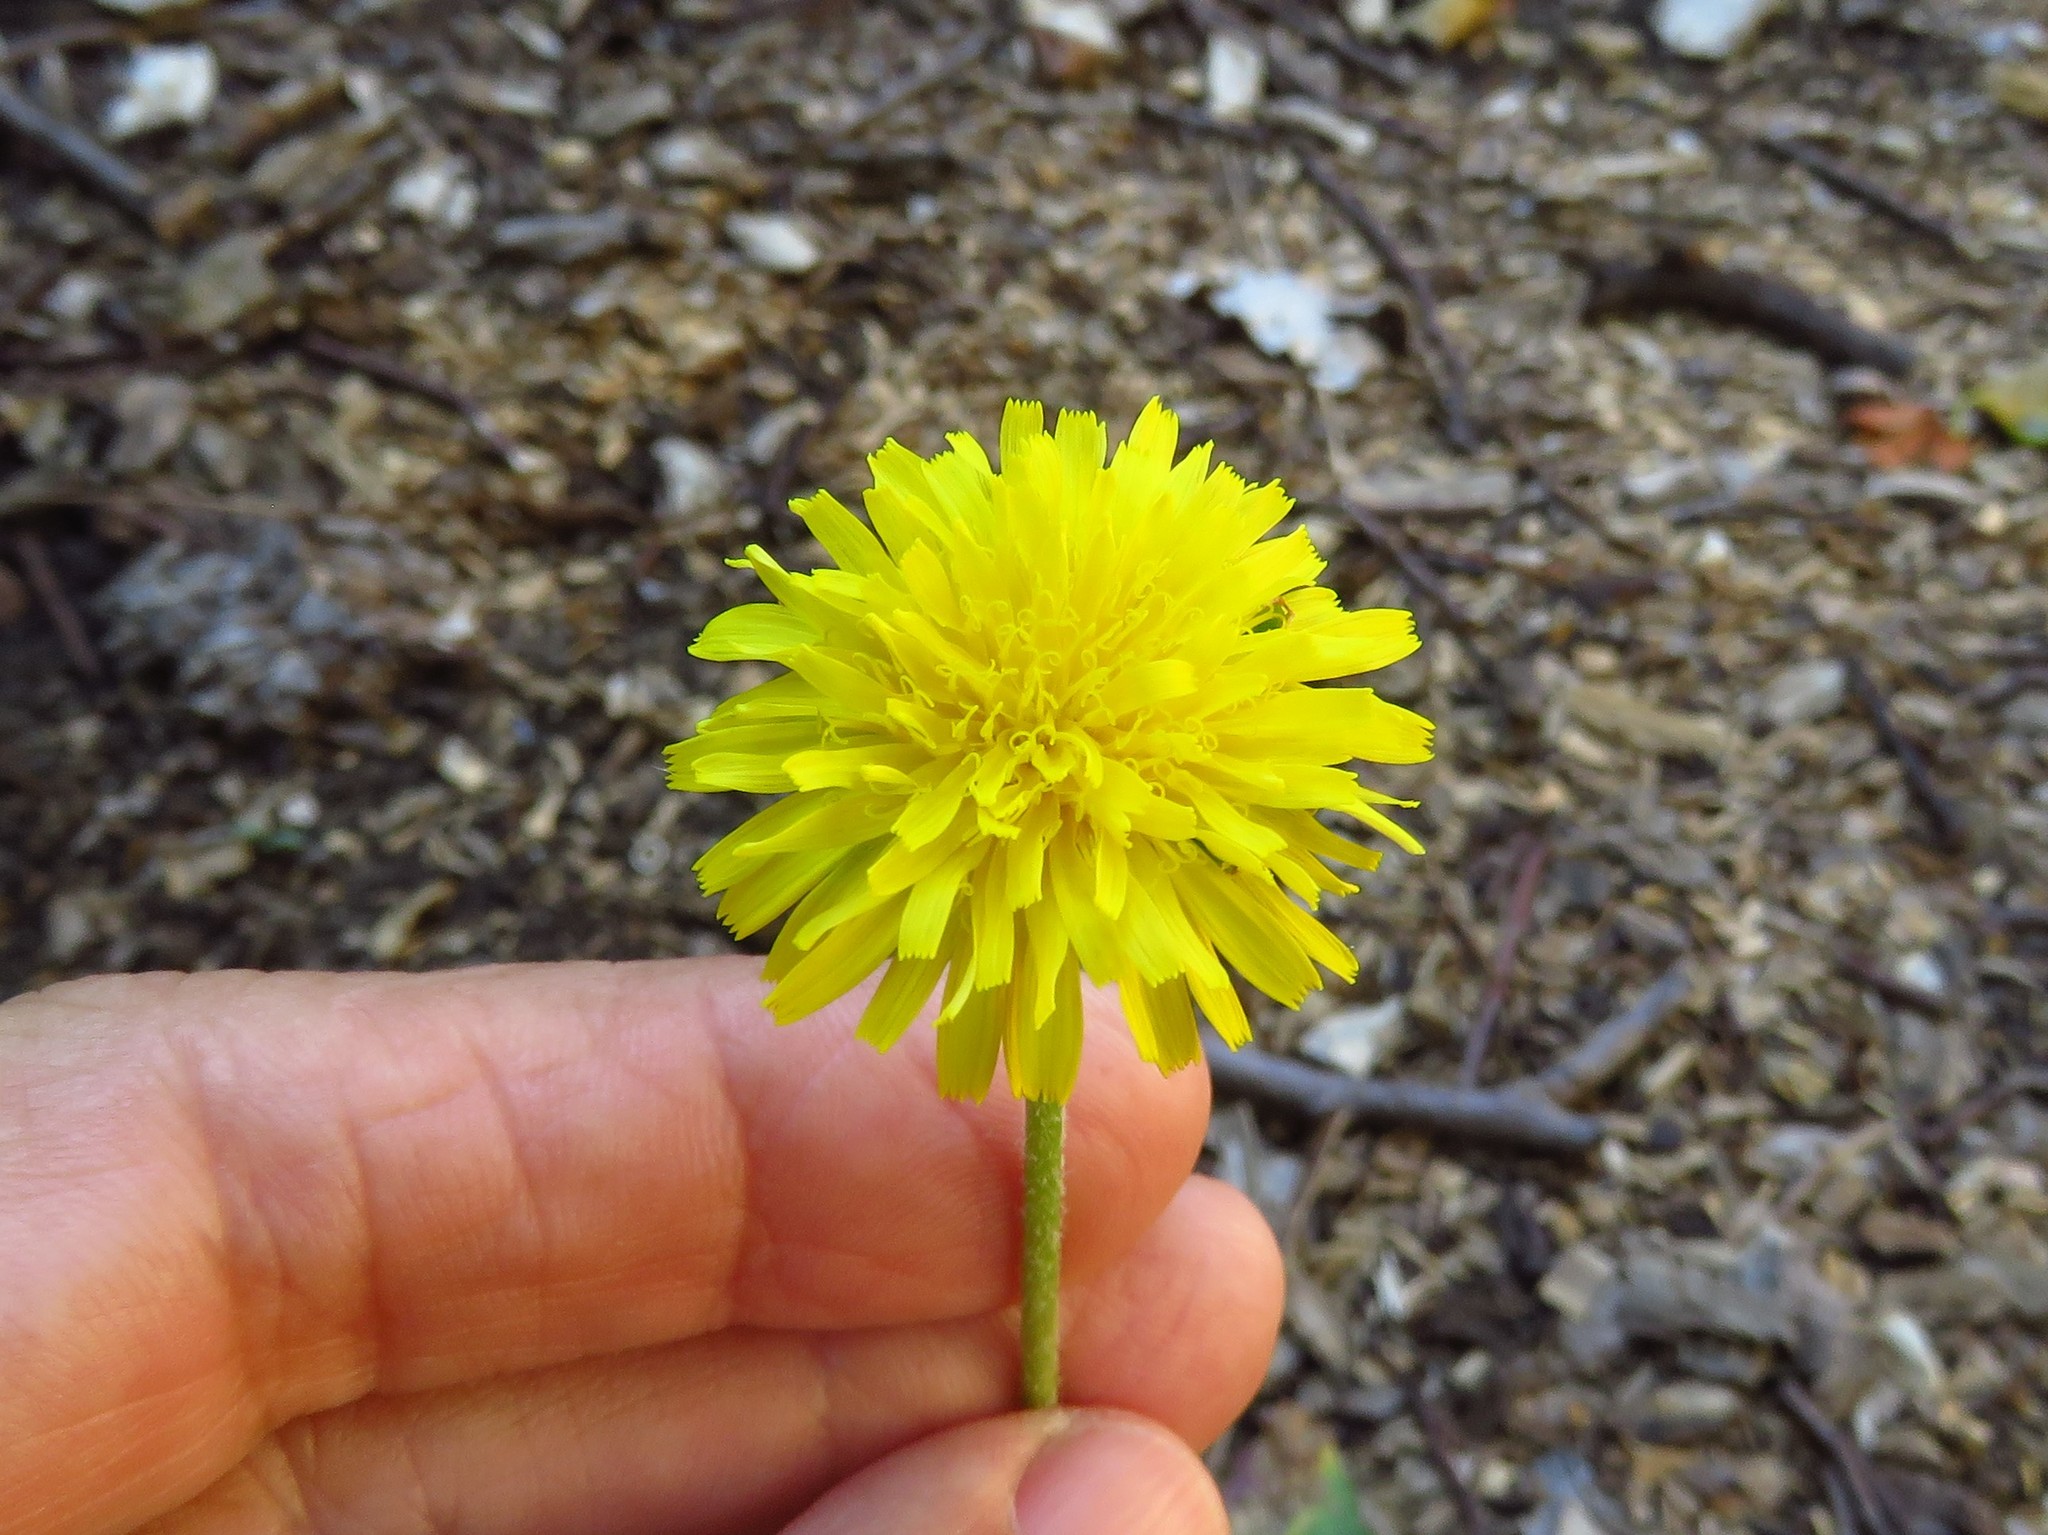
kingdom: Plantae
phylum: Tracheophyta
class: Magnoliopsida
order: Asterales
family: Asteraceae
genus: Taraxacum
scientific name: Taraxacum officinale
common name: Common dandelion
